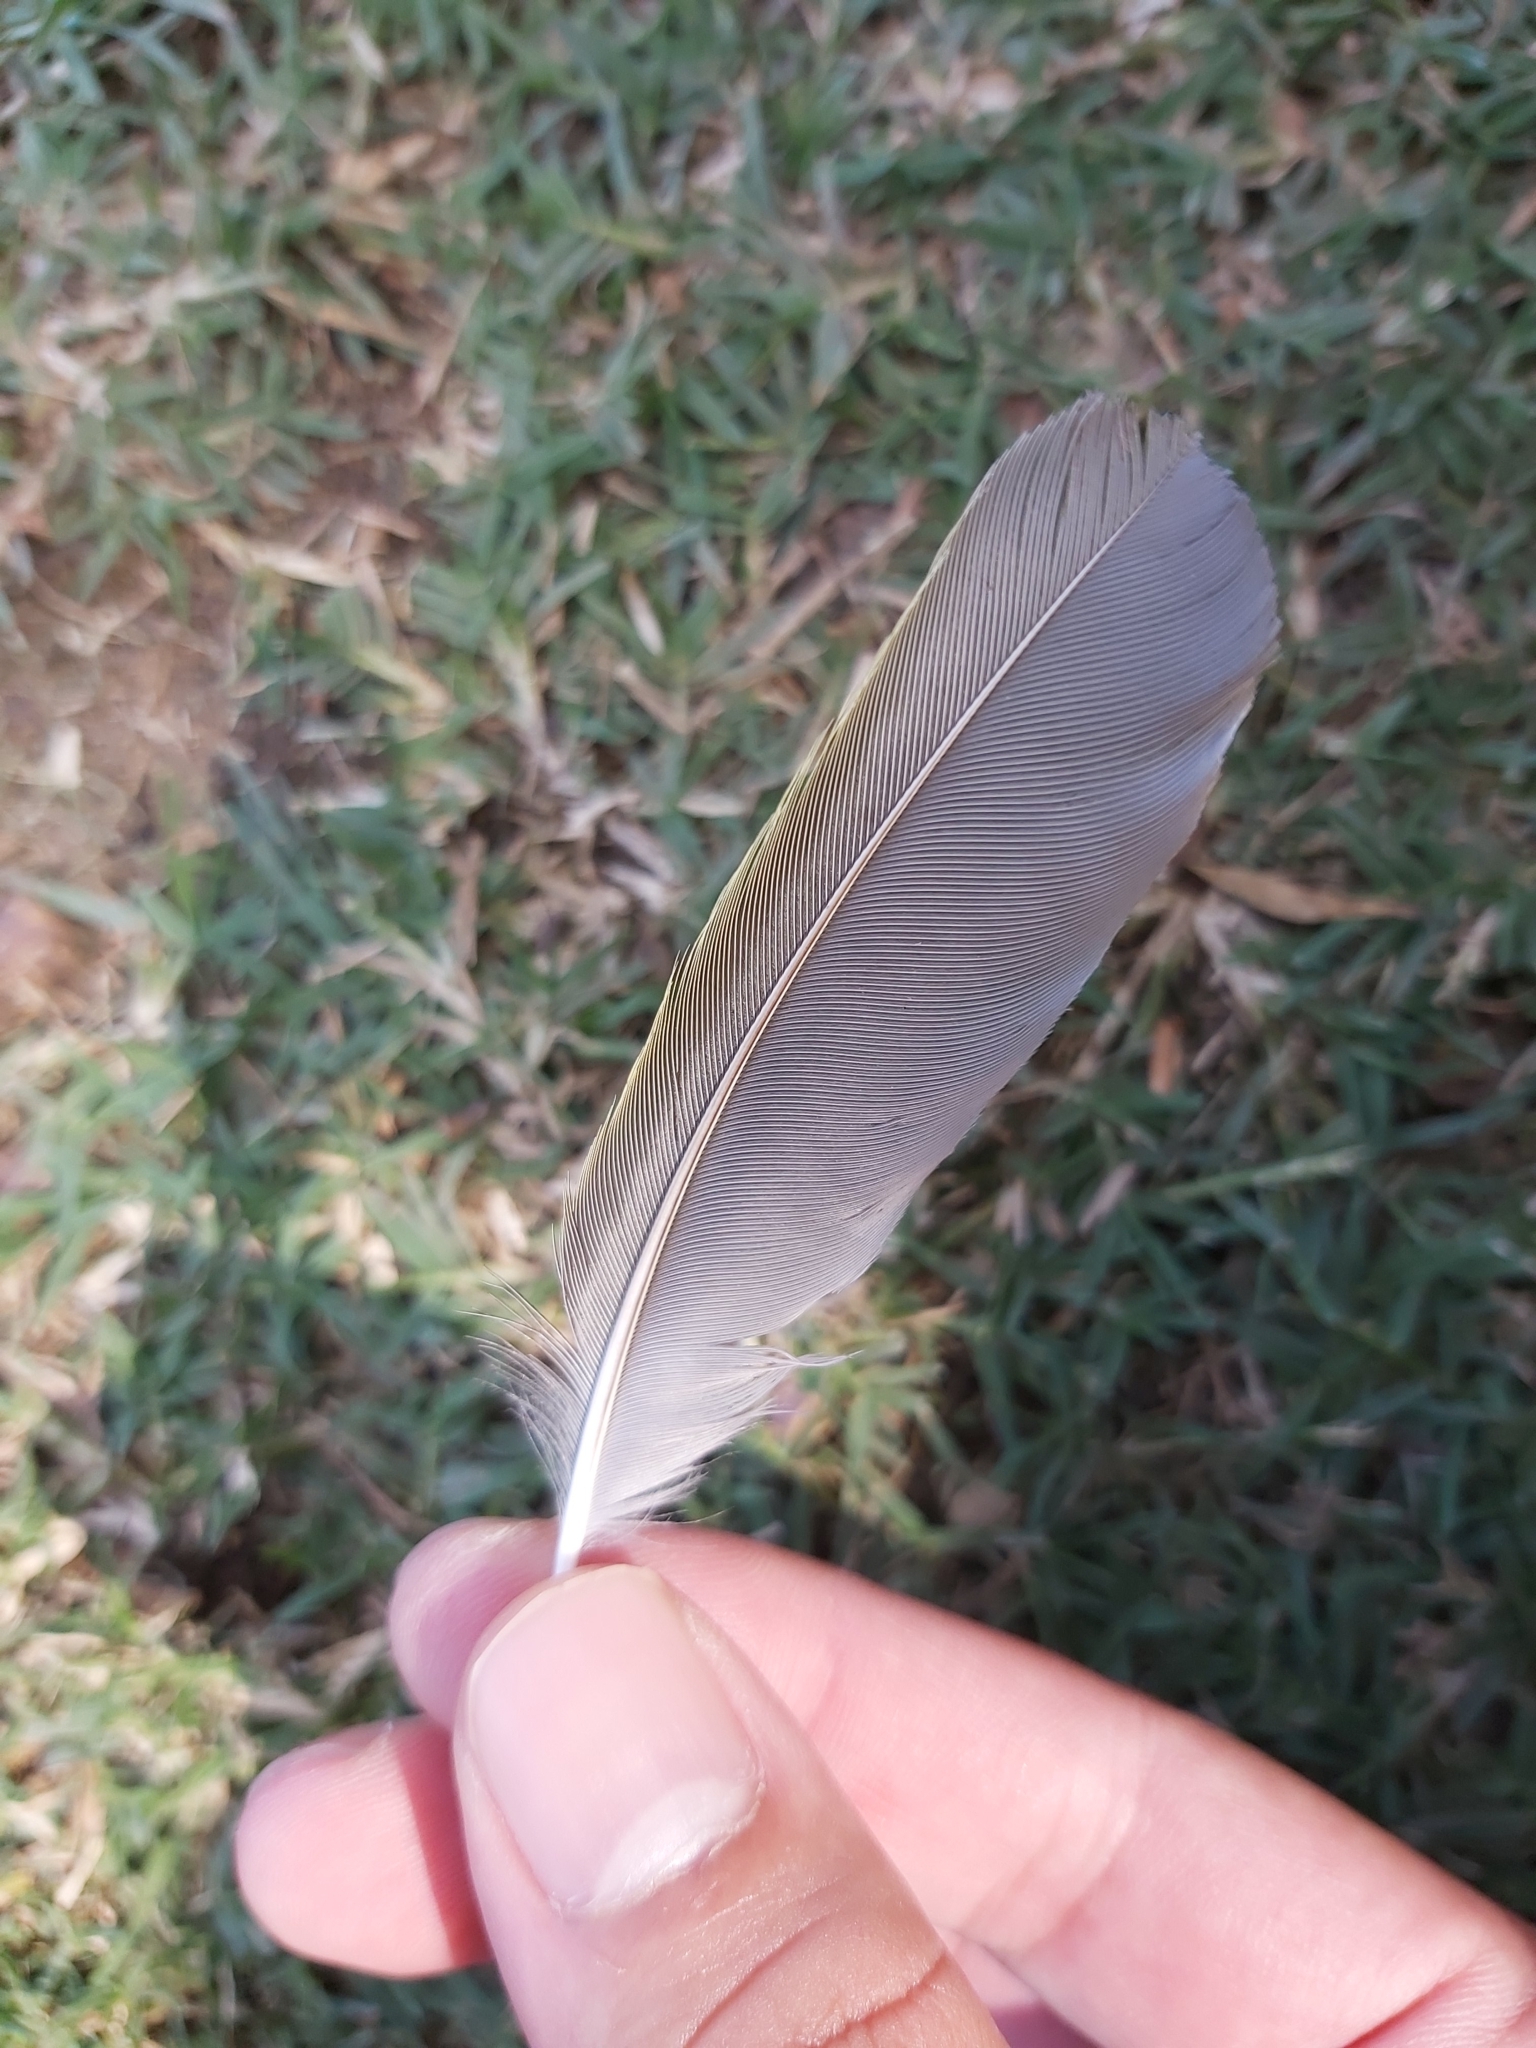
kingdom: Animalia
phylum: Chordata
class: Aves
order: Passeriformes
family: Meliphagidae
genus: Manorina
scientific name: Manorina melanocephala
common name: Noisy miner
